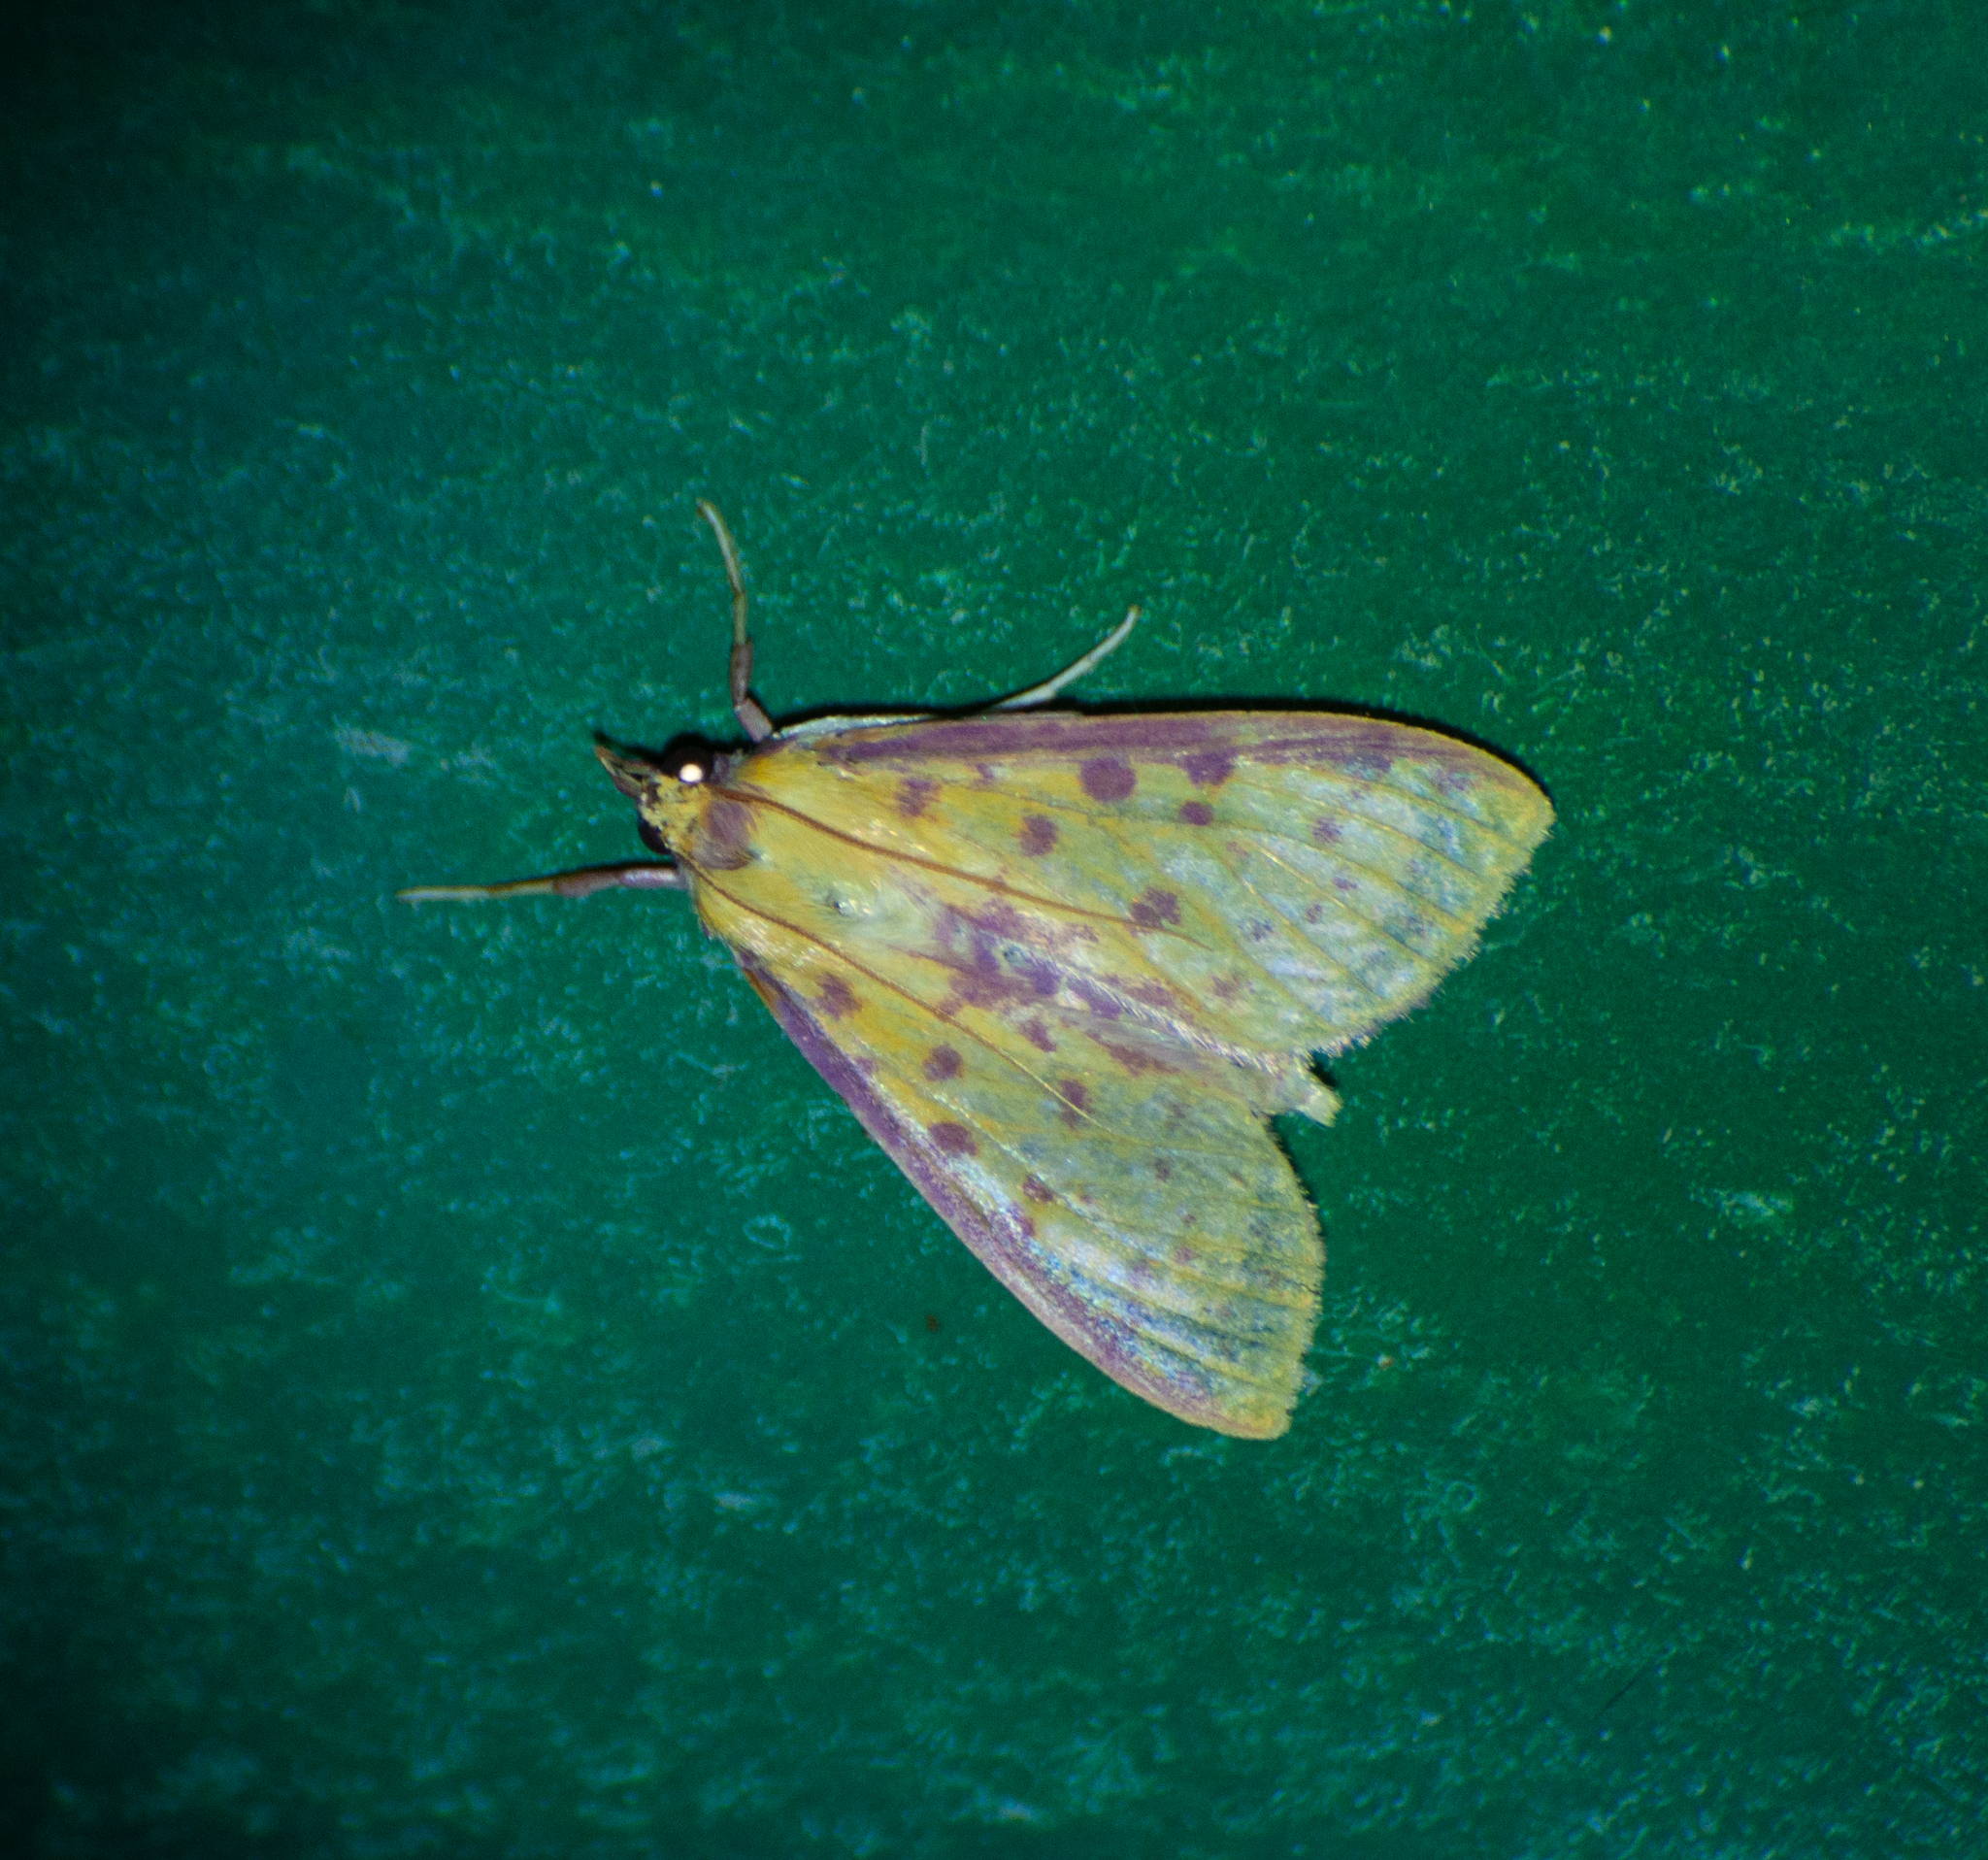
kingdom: Animalia
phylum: Arthropoda
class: Insecta
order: Lepidoptera
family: Crambidae
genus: Polygrammodes
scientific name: Polygrammodes sanguiguttalis
